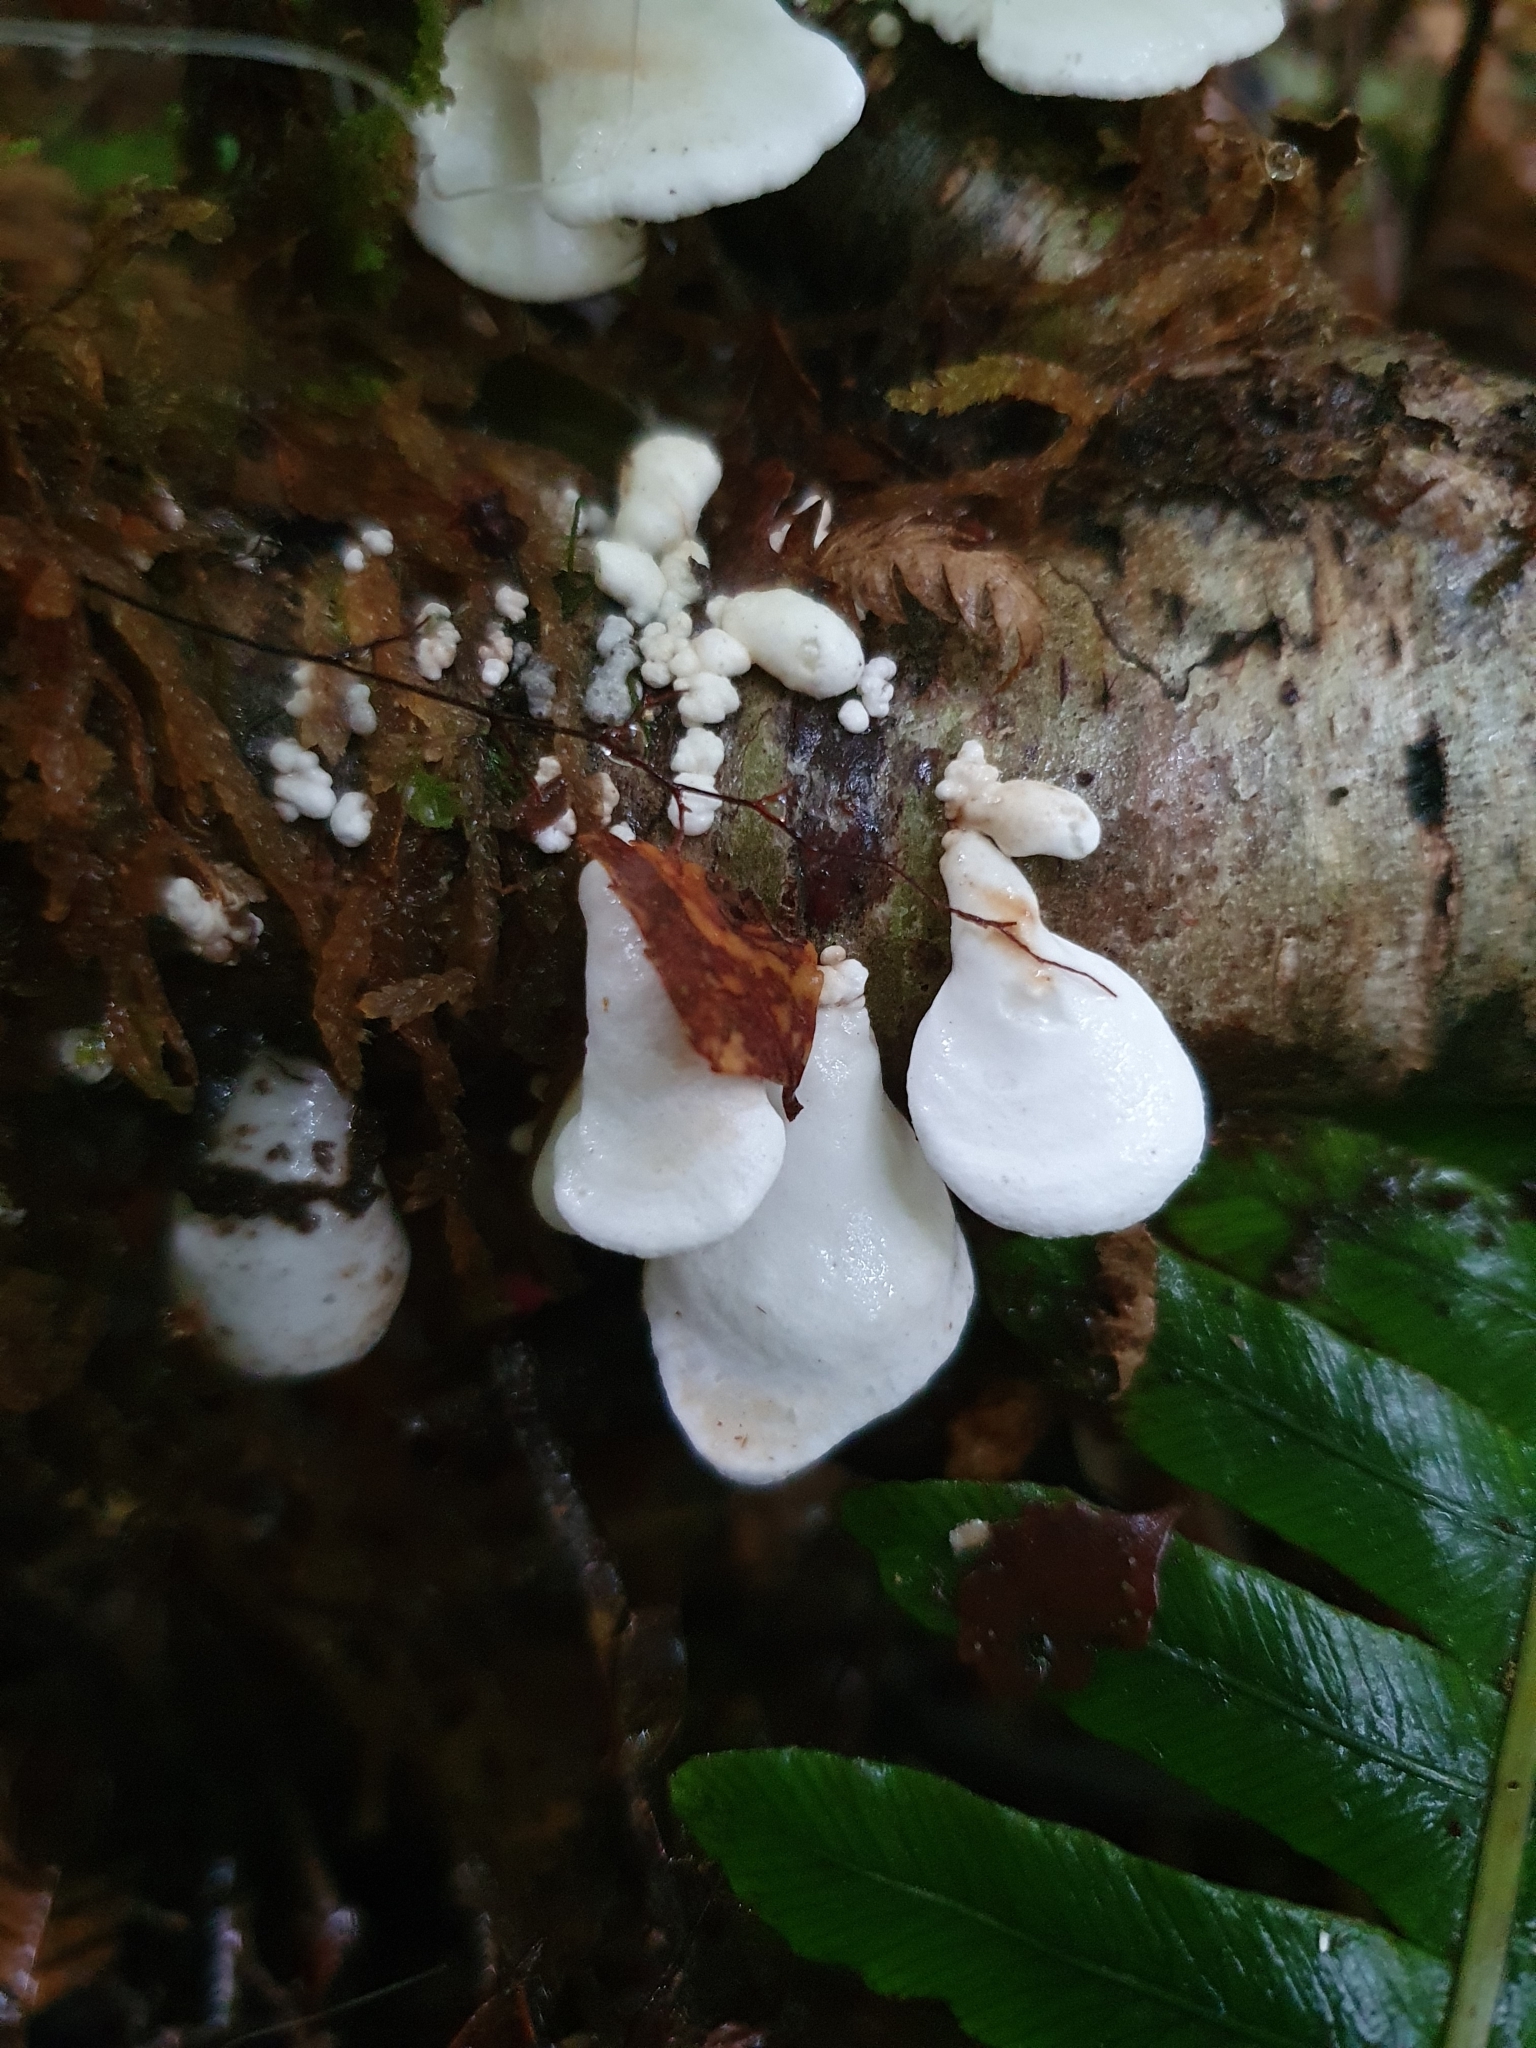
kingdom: Fungi
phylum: Basidiomycota
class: Agaricomycetes
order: Polyporales
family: Irpicaceae
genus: Gloeoporus
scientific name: Gloeoporus phlebophorus
